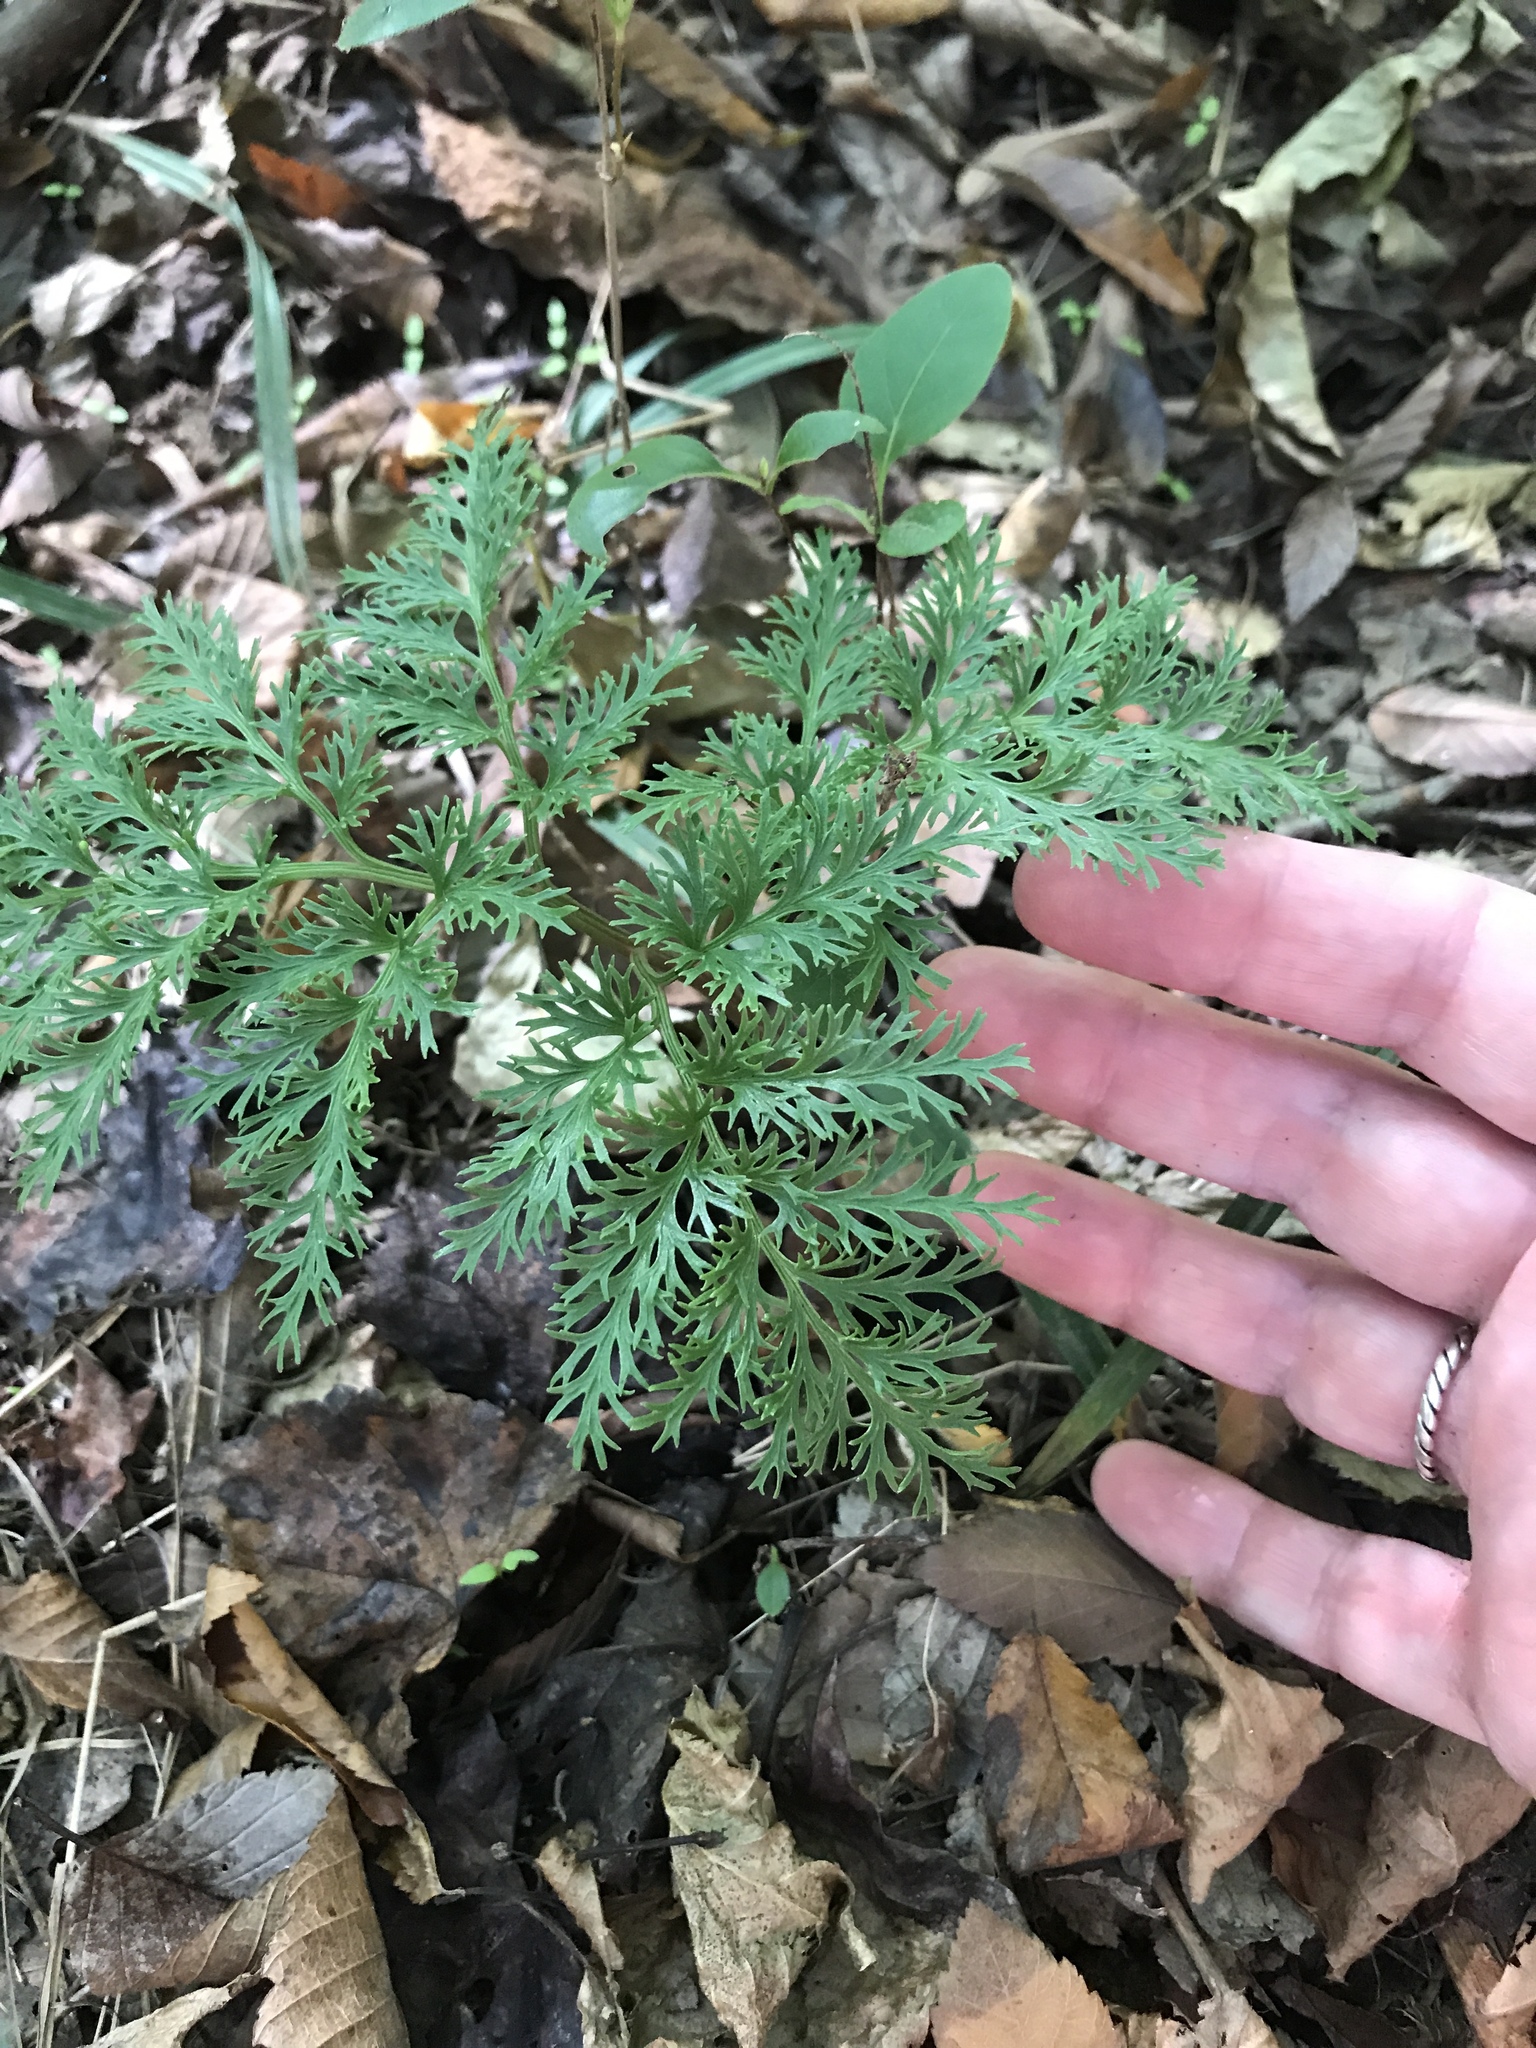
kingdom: Plantae
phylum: Tracheophyta
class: Polypodiopsida
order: Ophioglossales
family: Ophioglossaceae
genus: Sceptridium
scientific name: Sceptridium dissectum
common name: Cut-leaved grapefern
